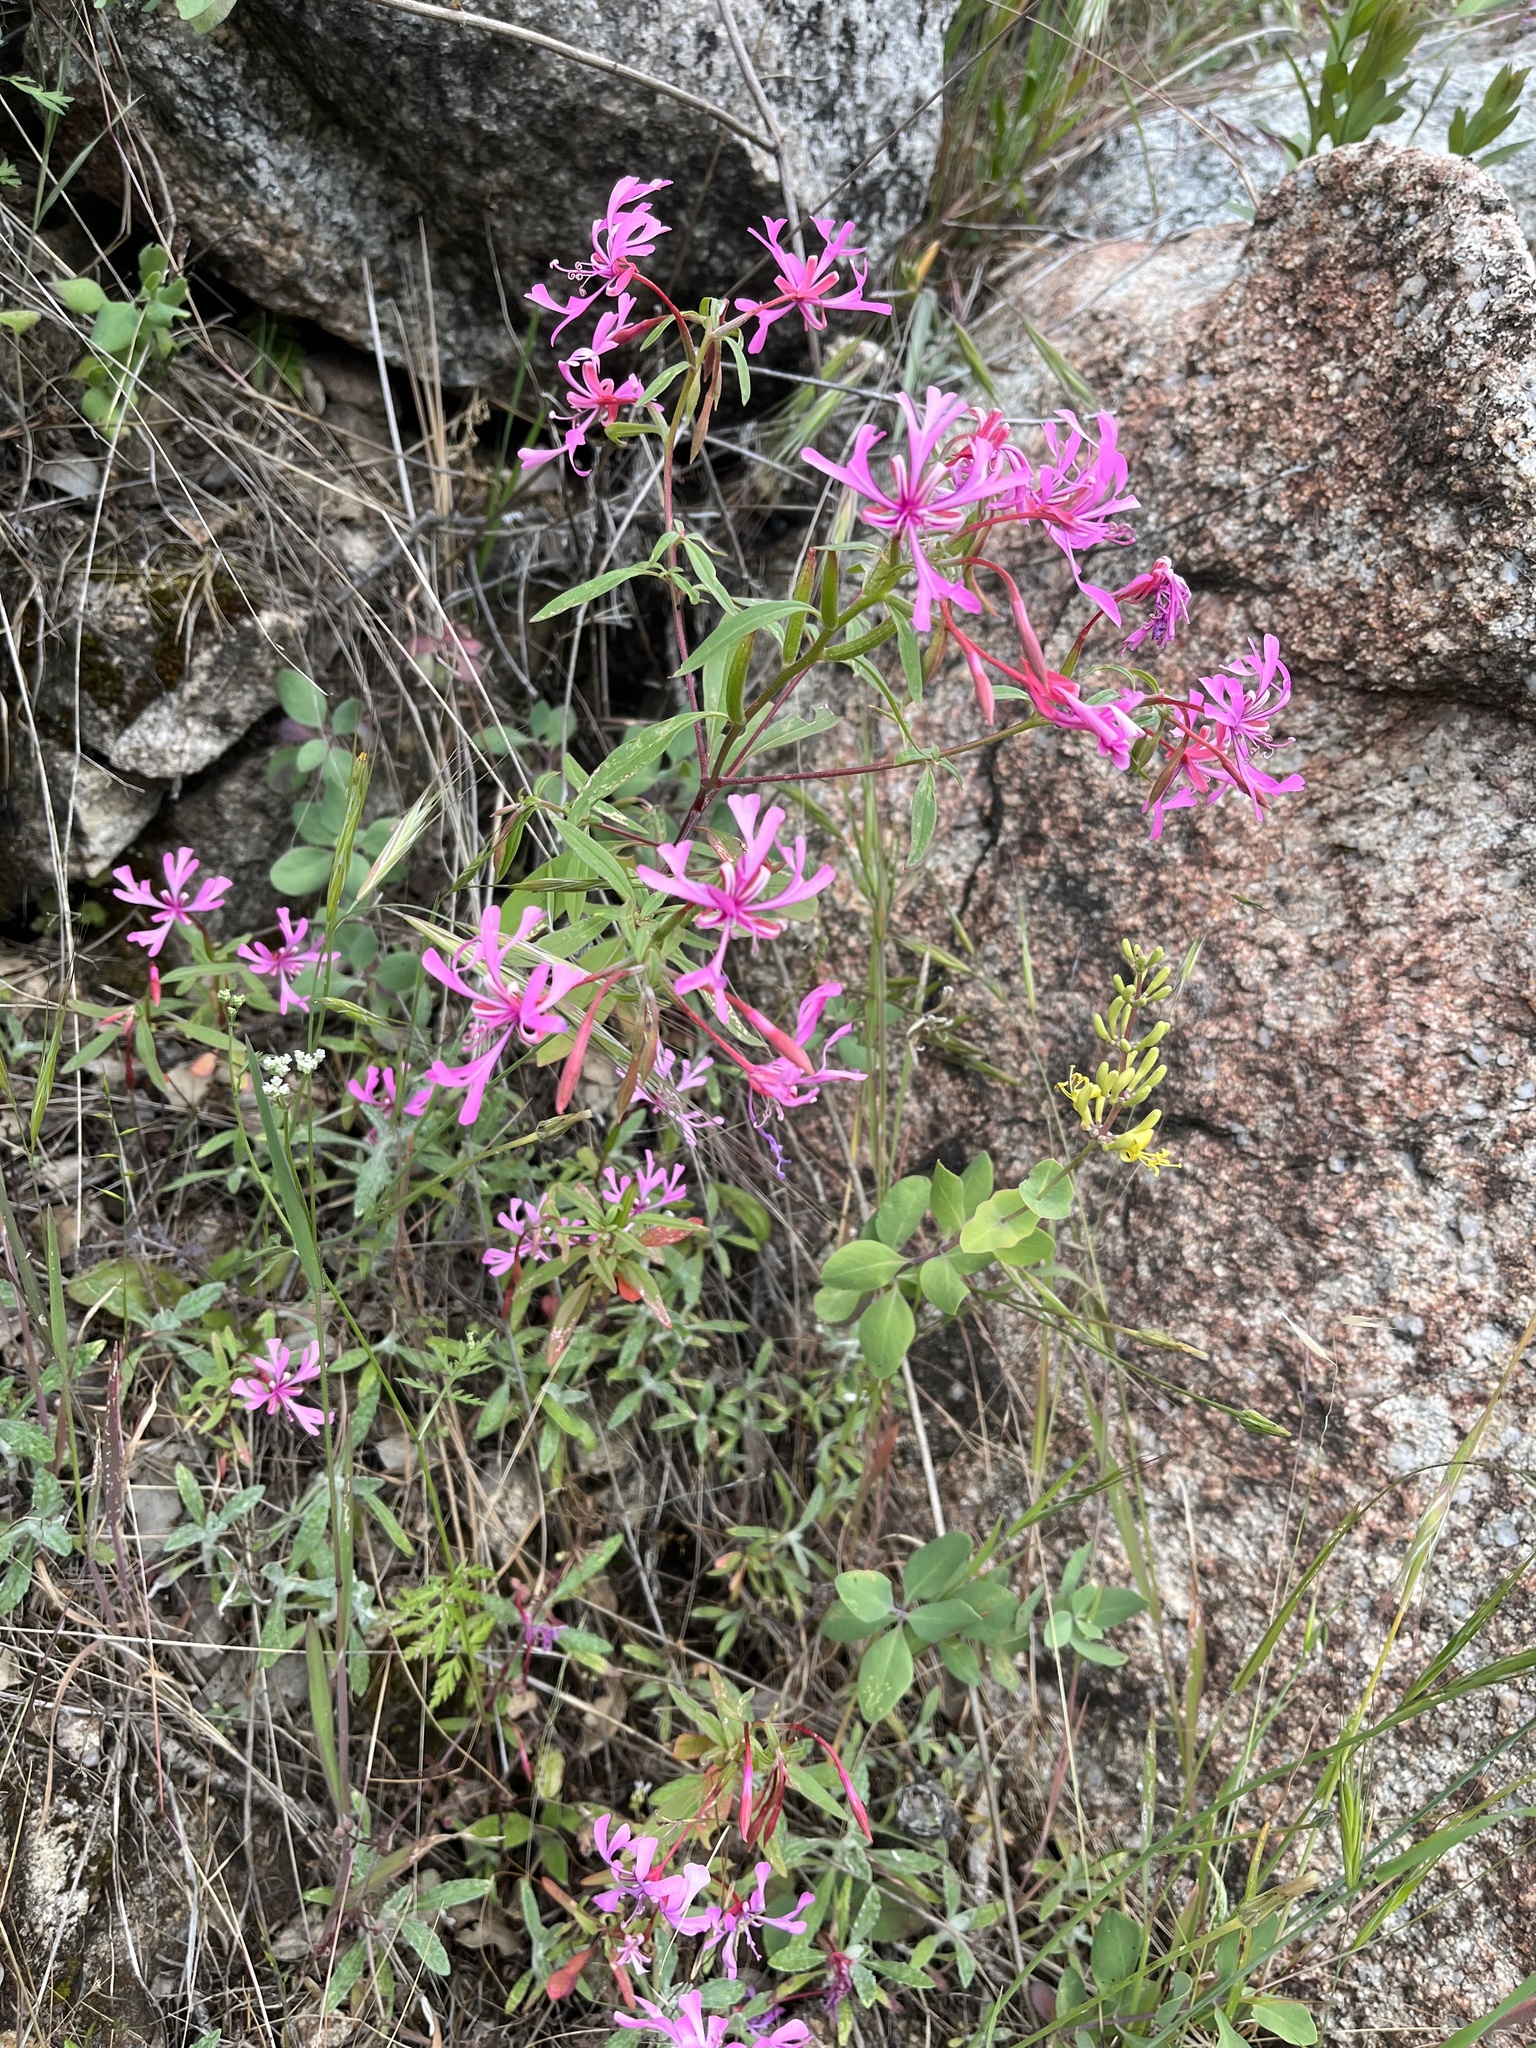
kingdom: Plantae
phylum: Tracheophyta
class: Magnoliopsida
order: Myrtales
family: Onagraceae
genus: Clarkia
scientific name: Clarkia concinna
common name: Red-ribbons
